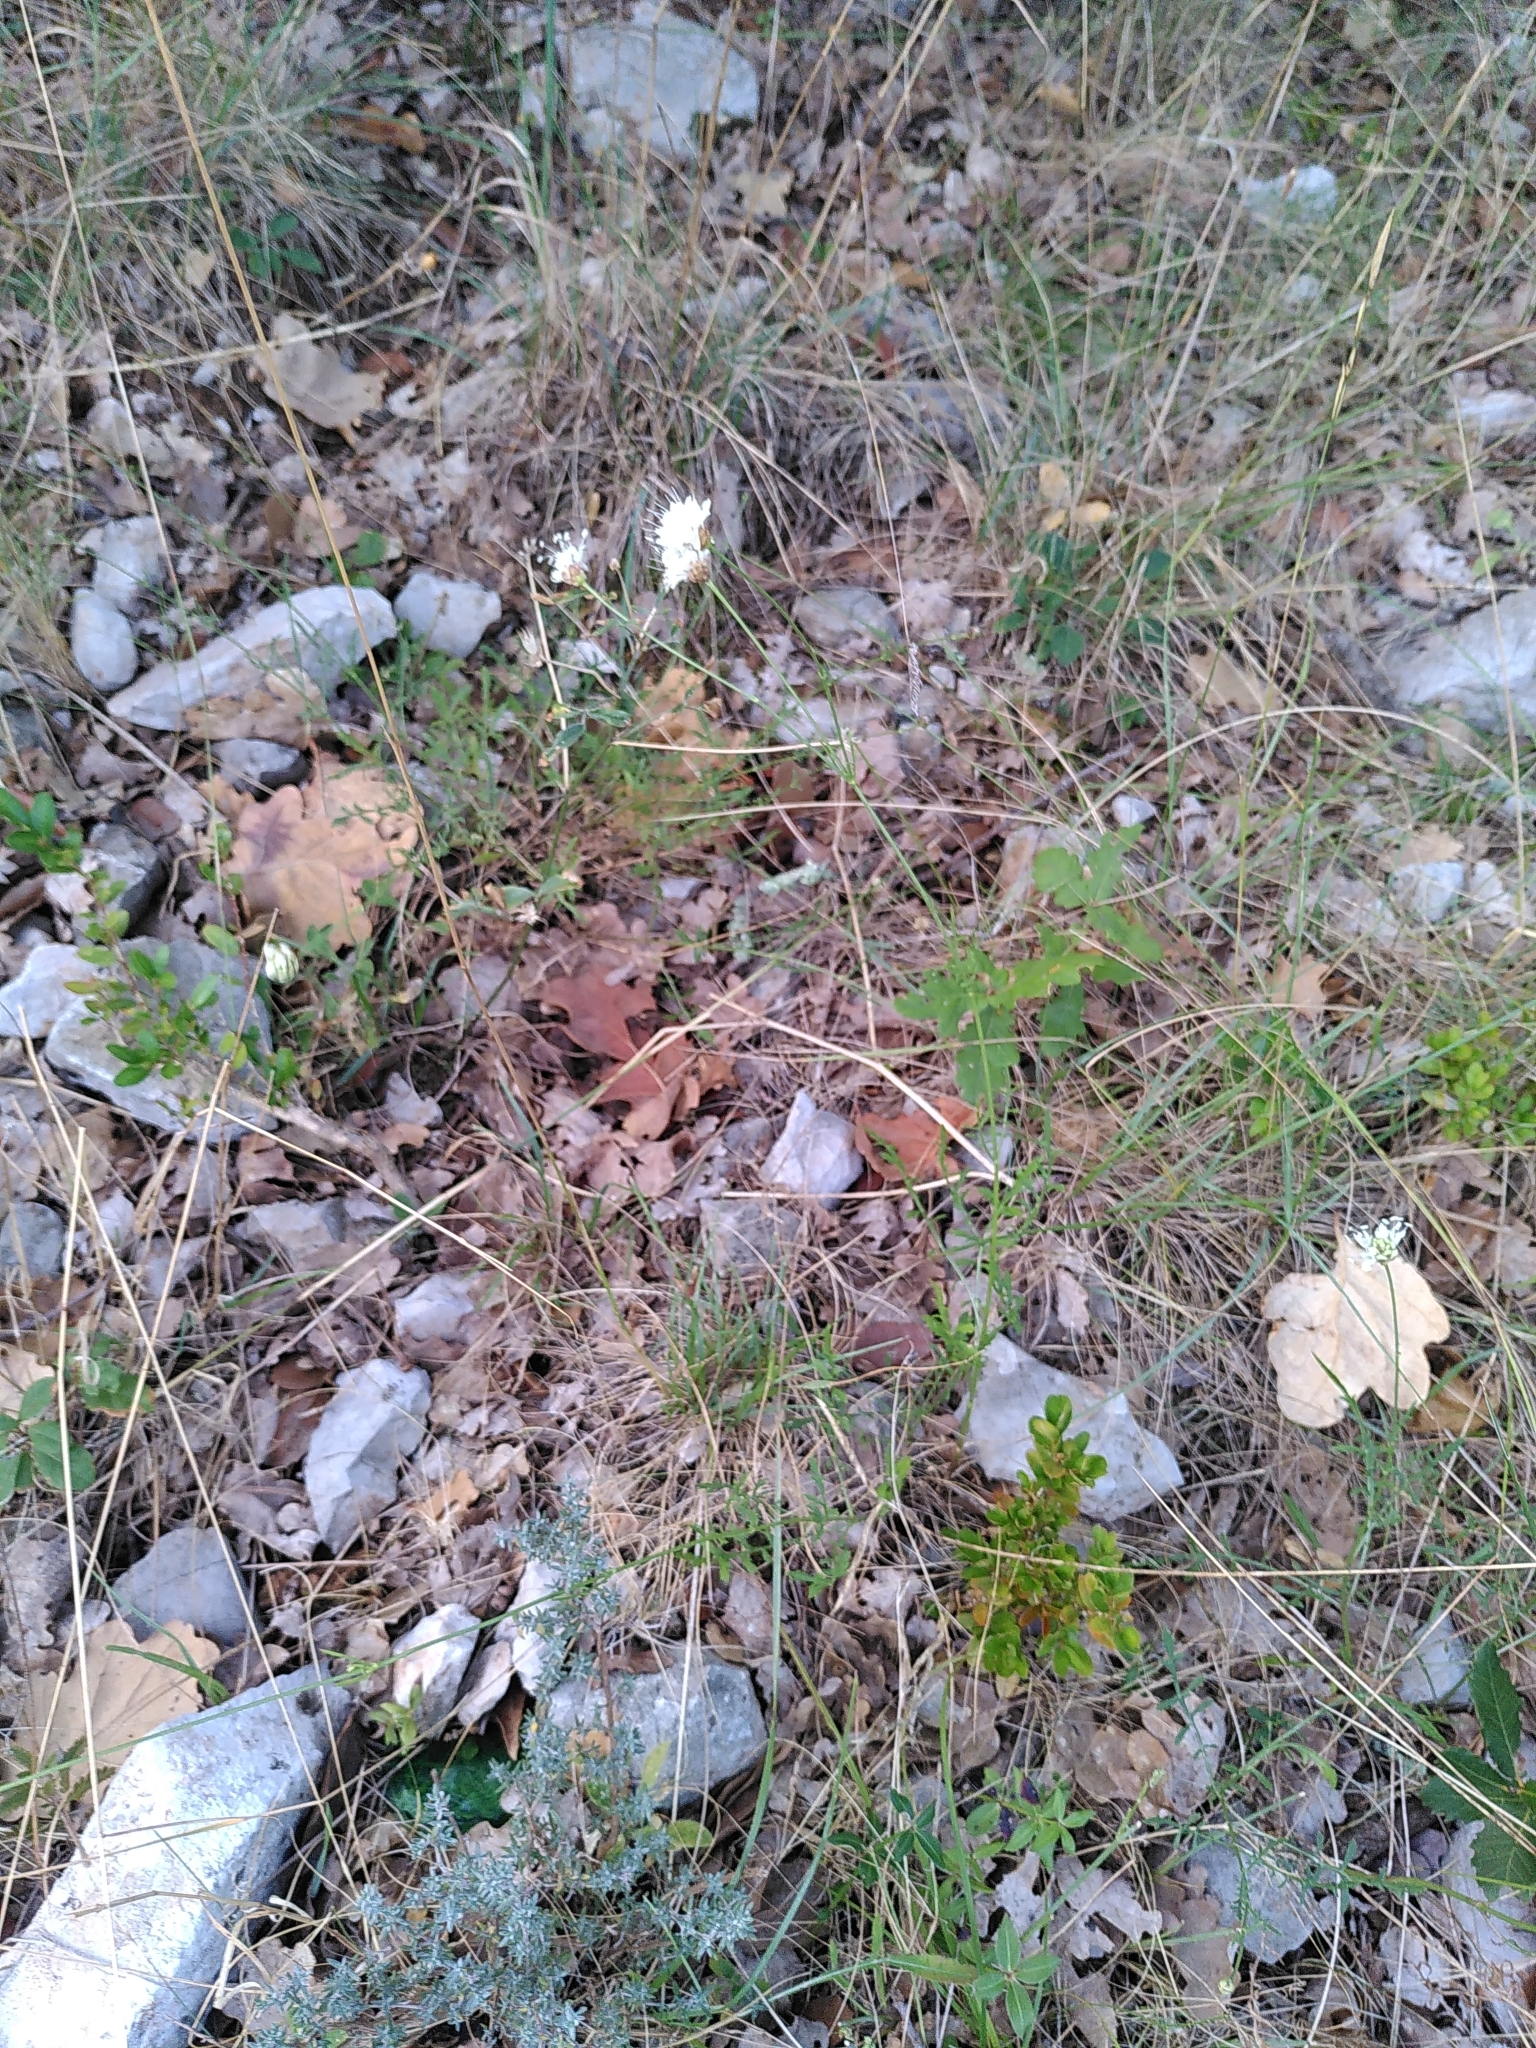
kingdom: Plantae
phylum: Tracheophyta
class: Magnoliopsida
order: Dipsacales
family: Caprifoliaceae
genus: Cephalaria
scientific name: Cephalaria leucantha
